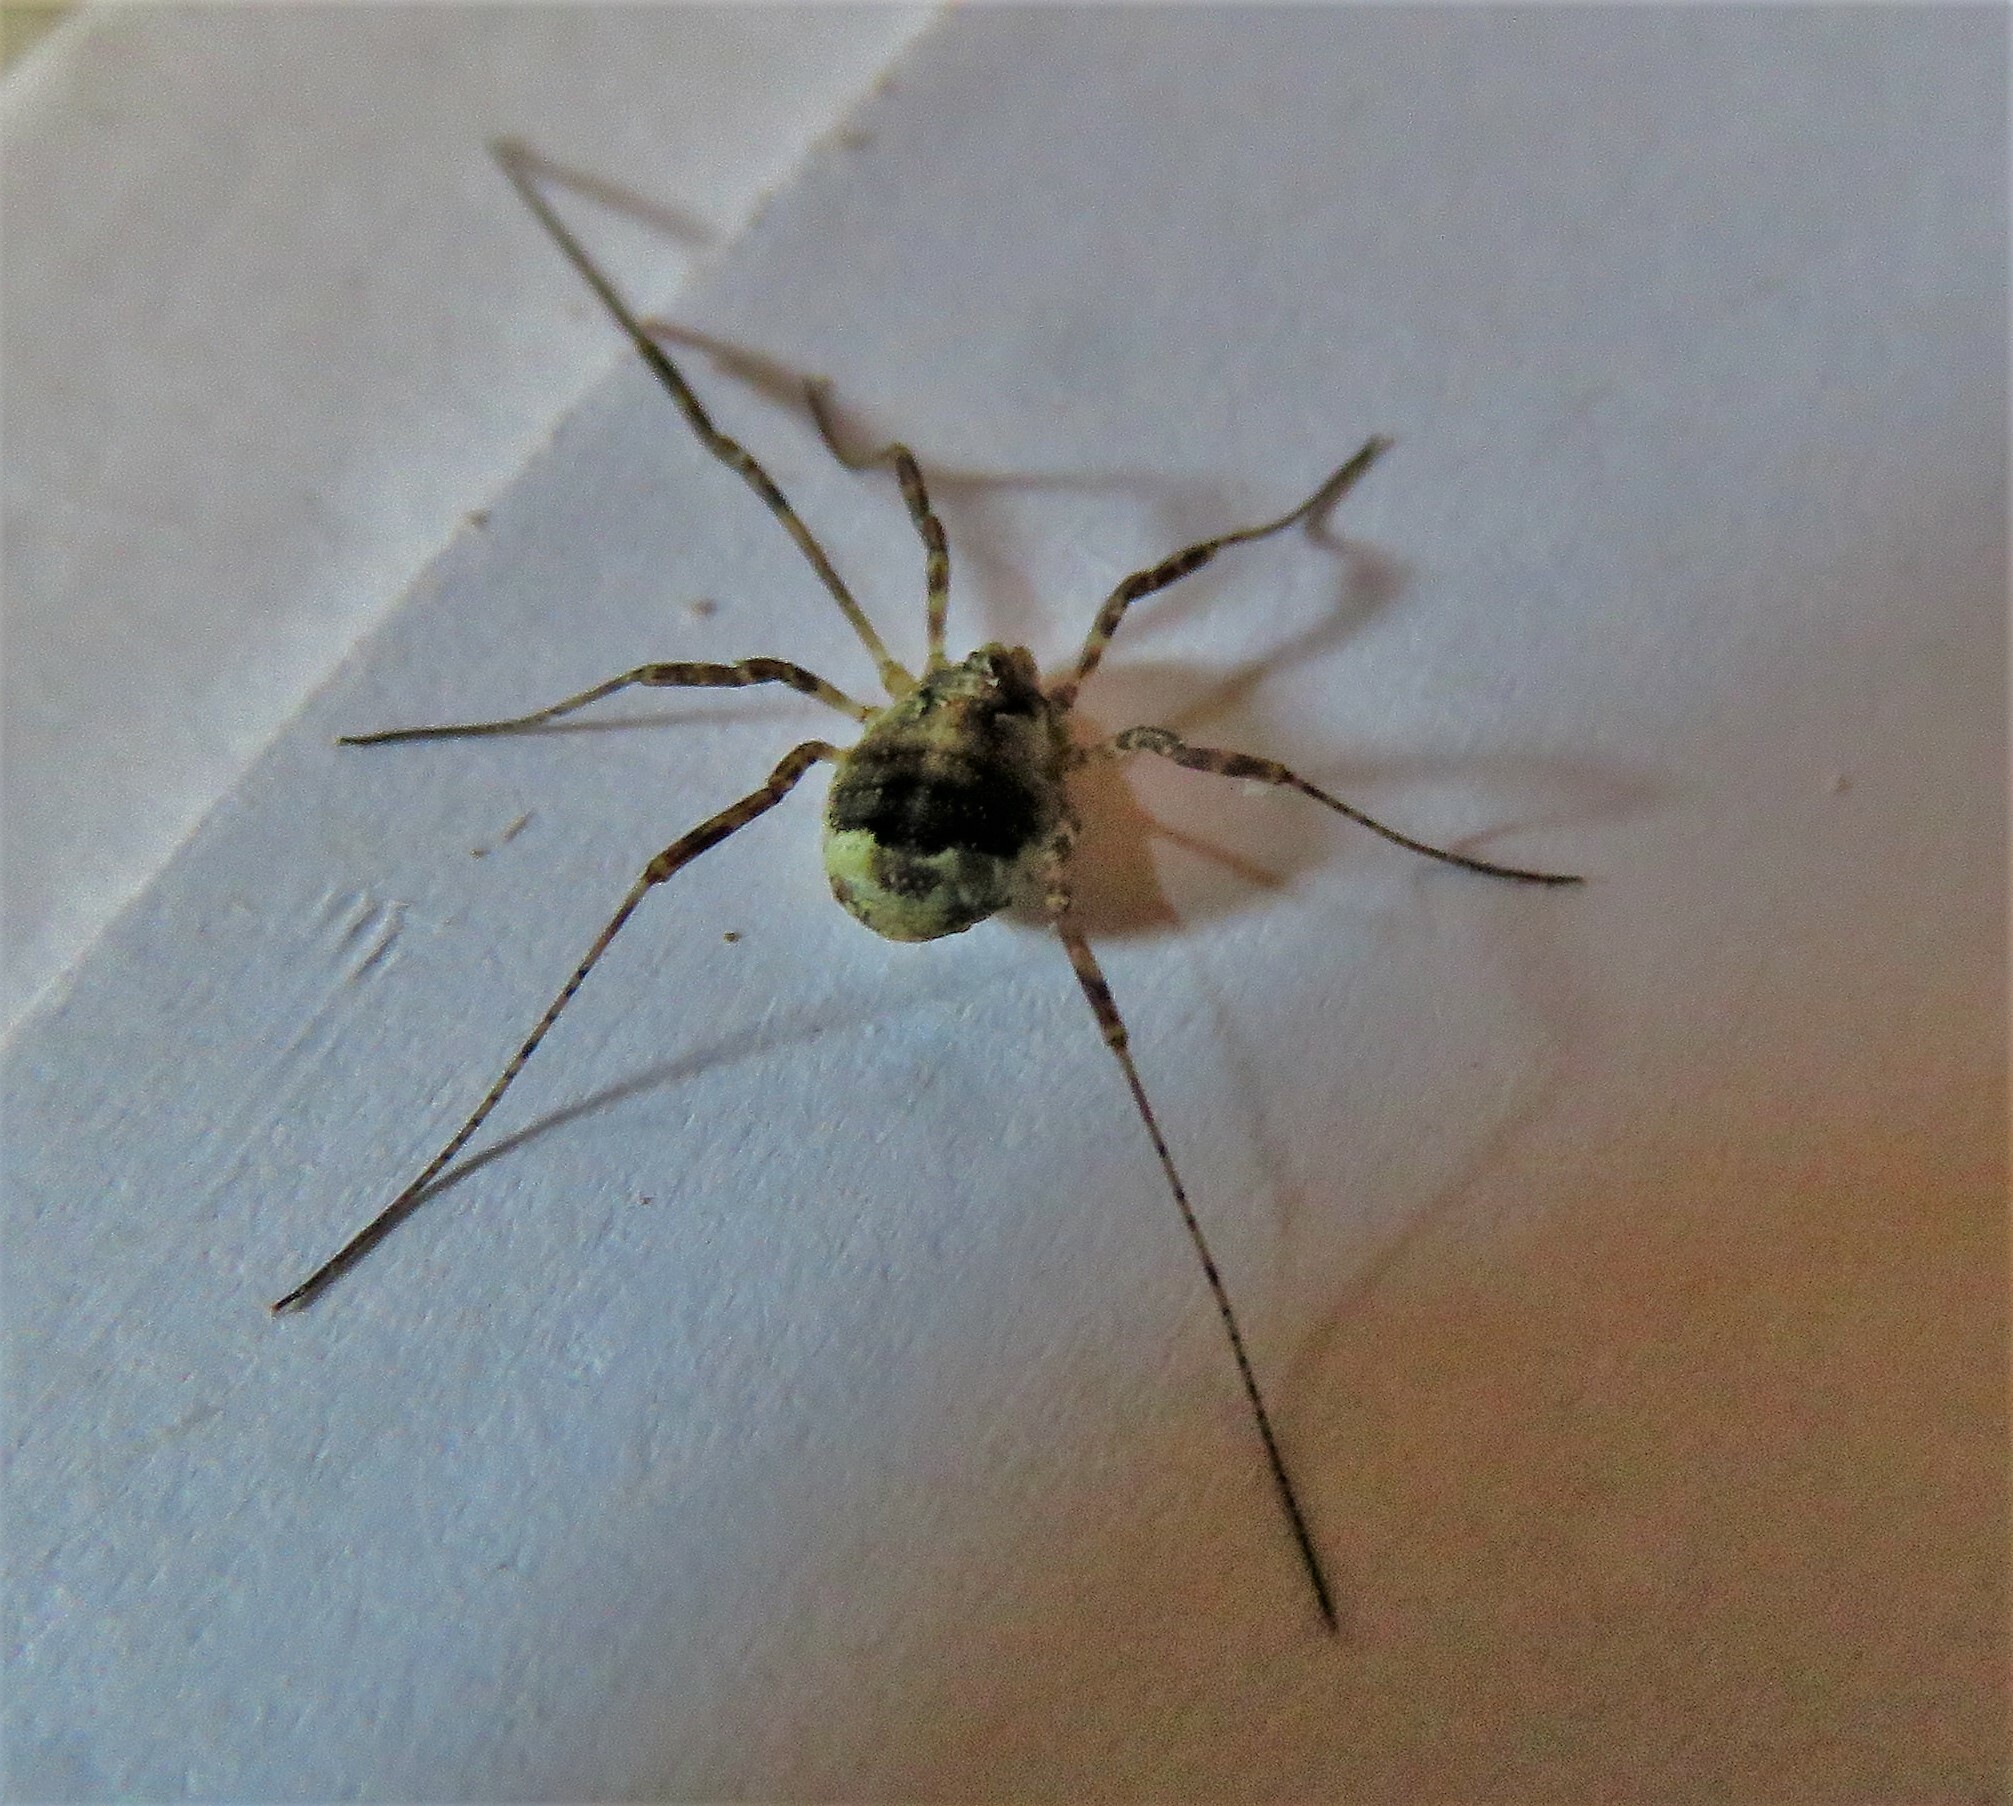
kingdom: Animalia
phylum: Arthropoda
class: Arachnida
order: Opiliones
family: Phalangiidae
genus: Paroligolophus
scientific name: Paroligolophus agrestis
